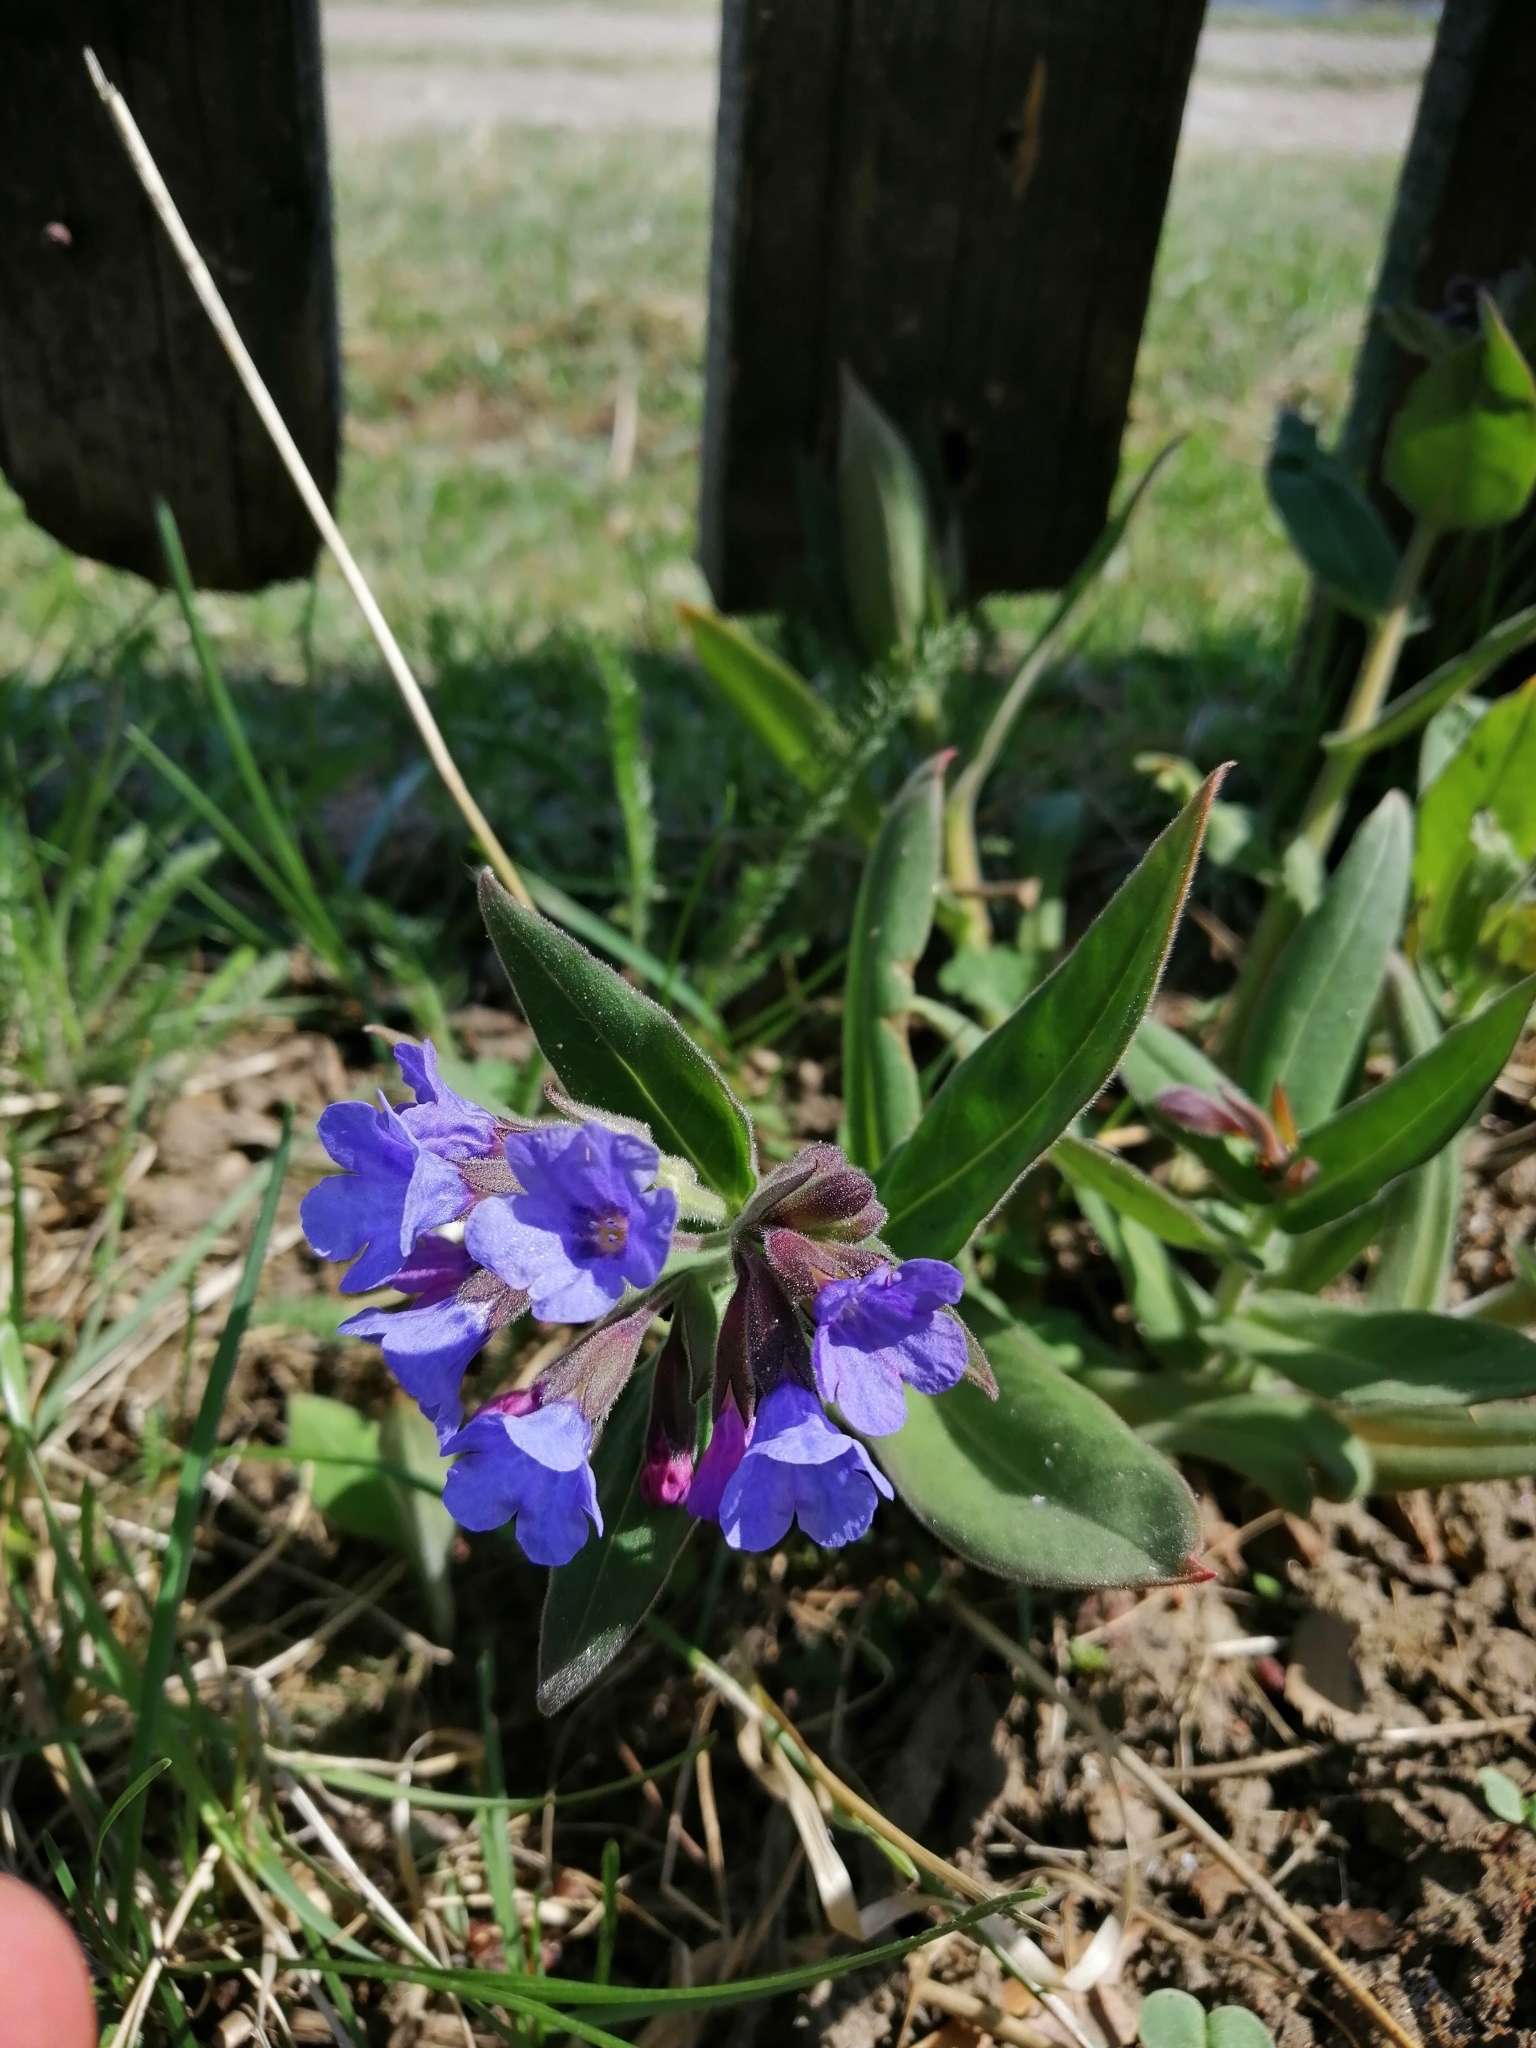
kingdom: Plantae
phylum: Tracheophyta
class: Magnoliopsida
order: Boraginales
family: Boraginaceae
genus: Pulmonaria
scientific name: Pulmonaria mollis
